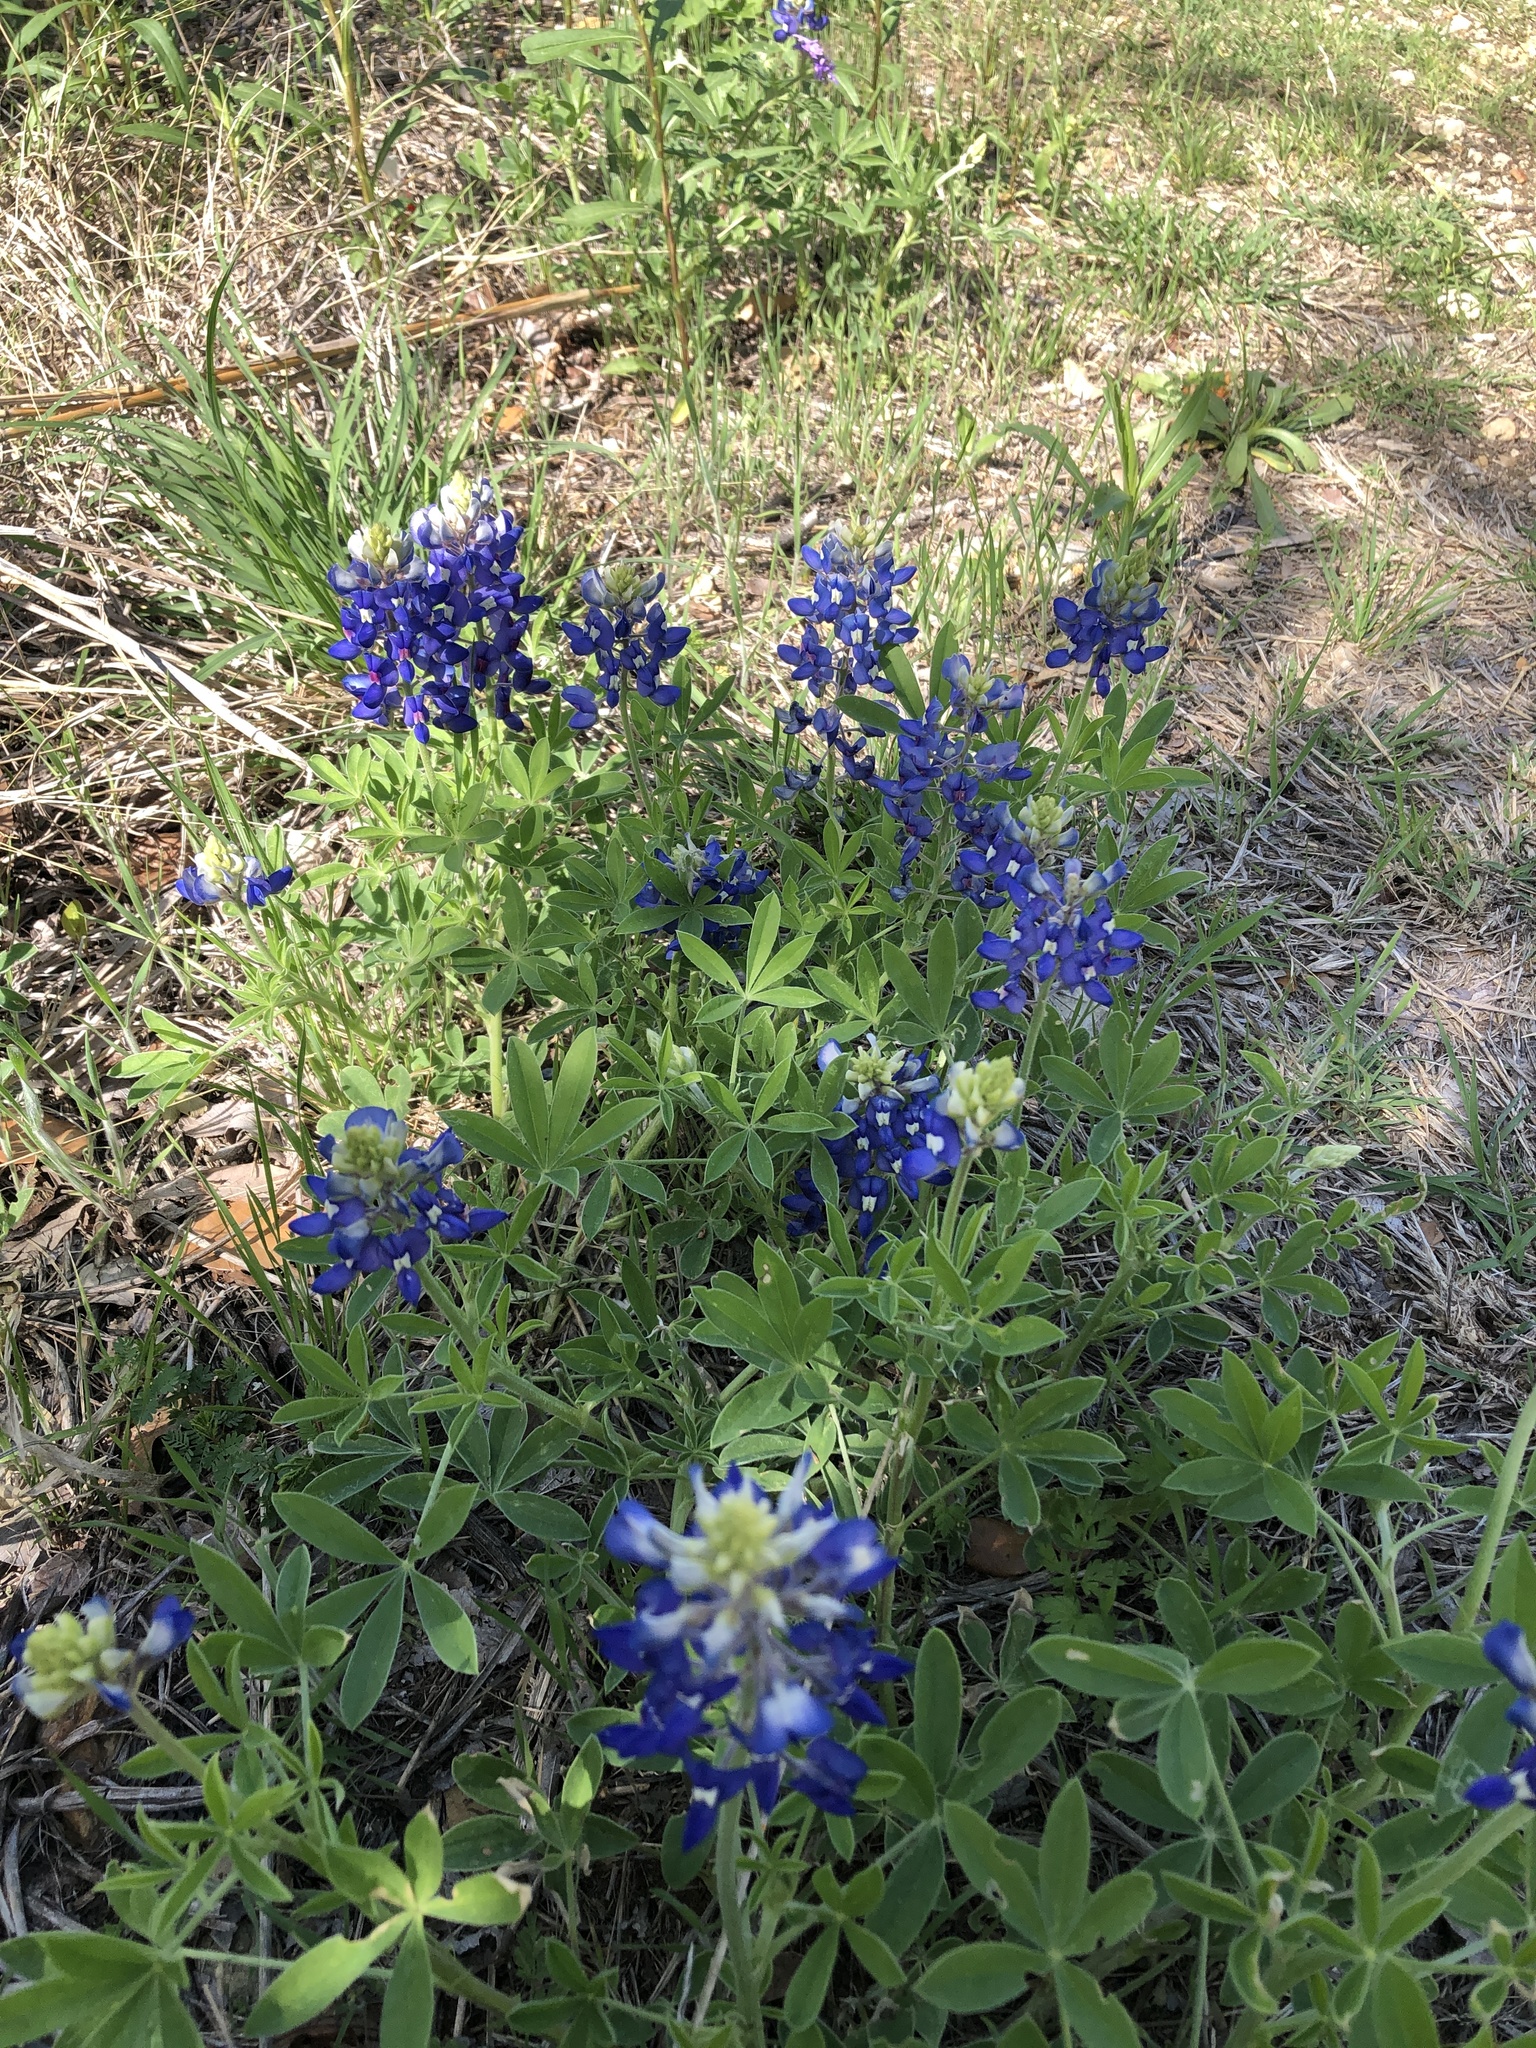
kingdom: Plantae
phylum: Tracheophyta
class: Magnoliopsida
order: Fabales
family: Fabaceae
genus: Lupinus
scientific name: Lupinus texensis
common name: Texas bluebonnet
